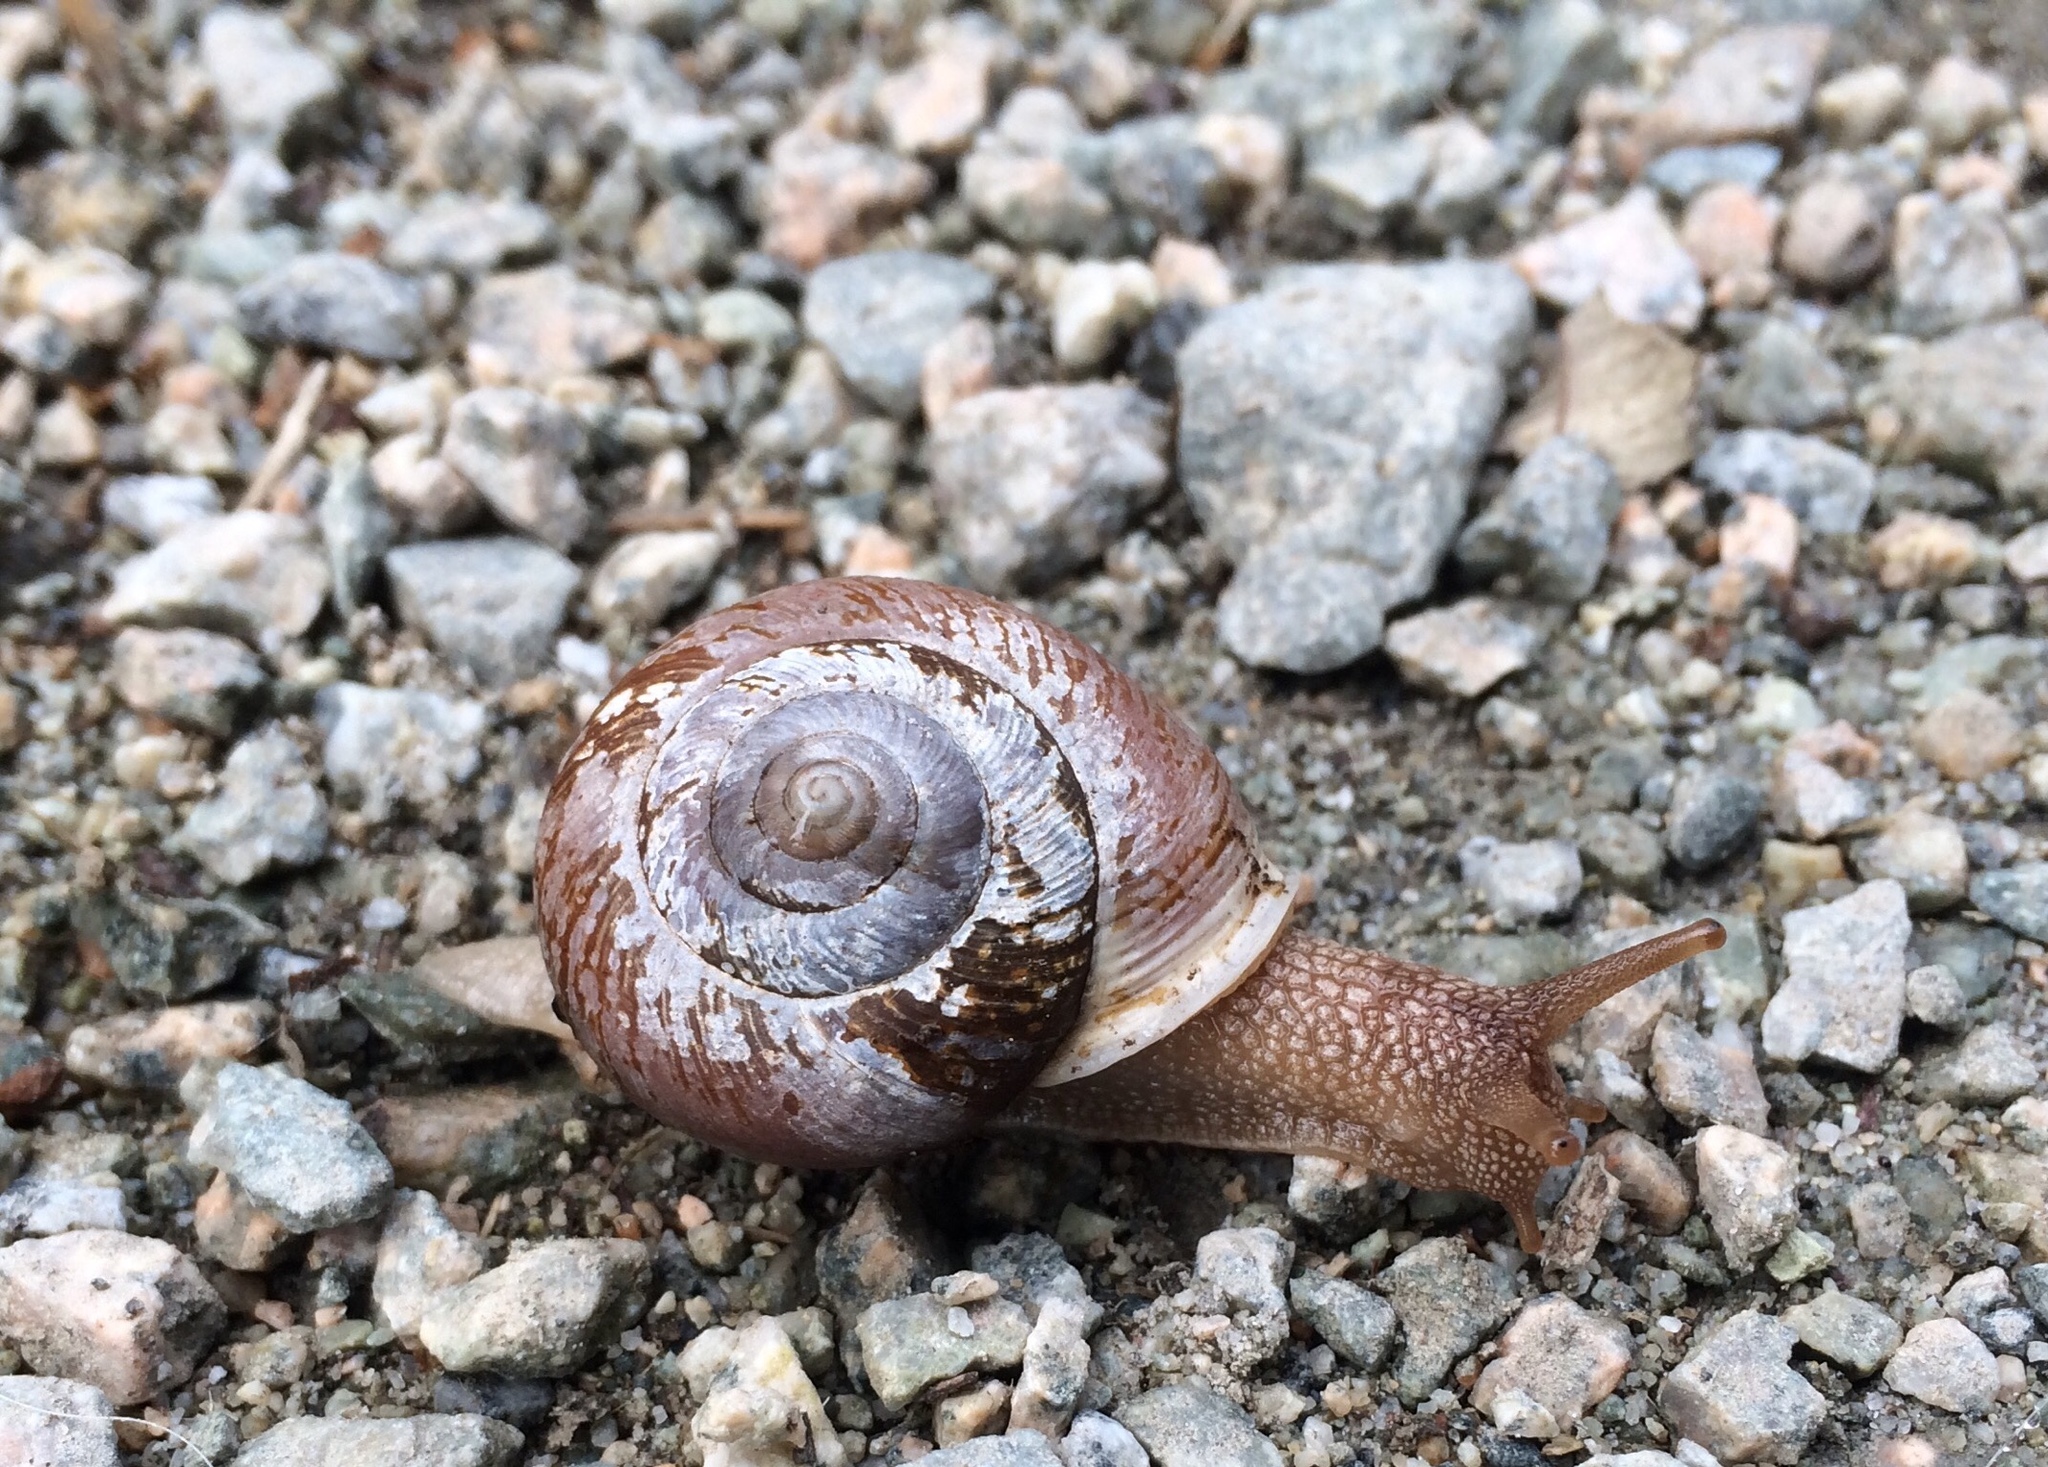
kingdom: Animalia
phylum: Mollusca
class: Gastropoda
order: Stylommatophora
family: Polygyridae
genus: Allogona
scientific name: Allogona townsendiana
